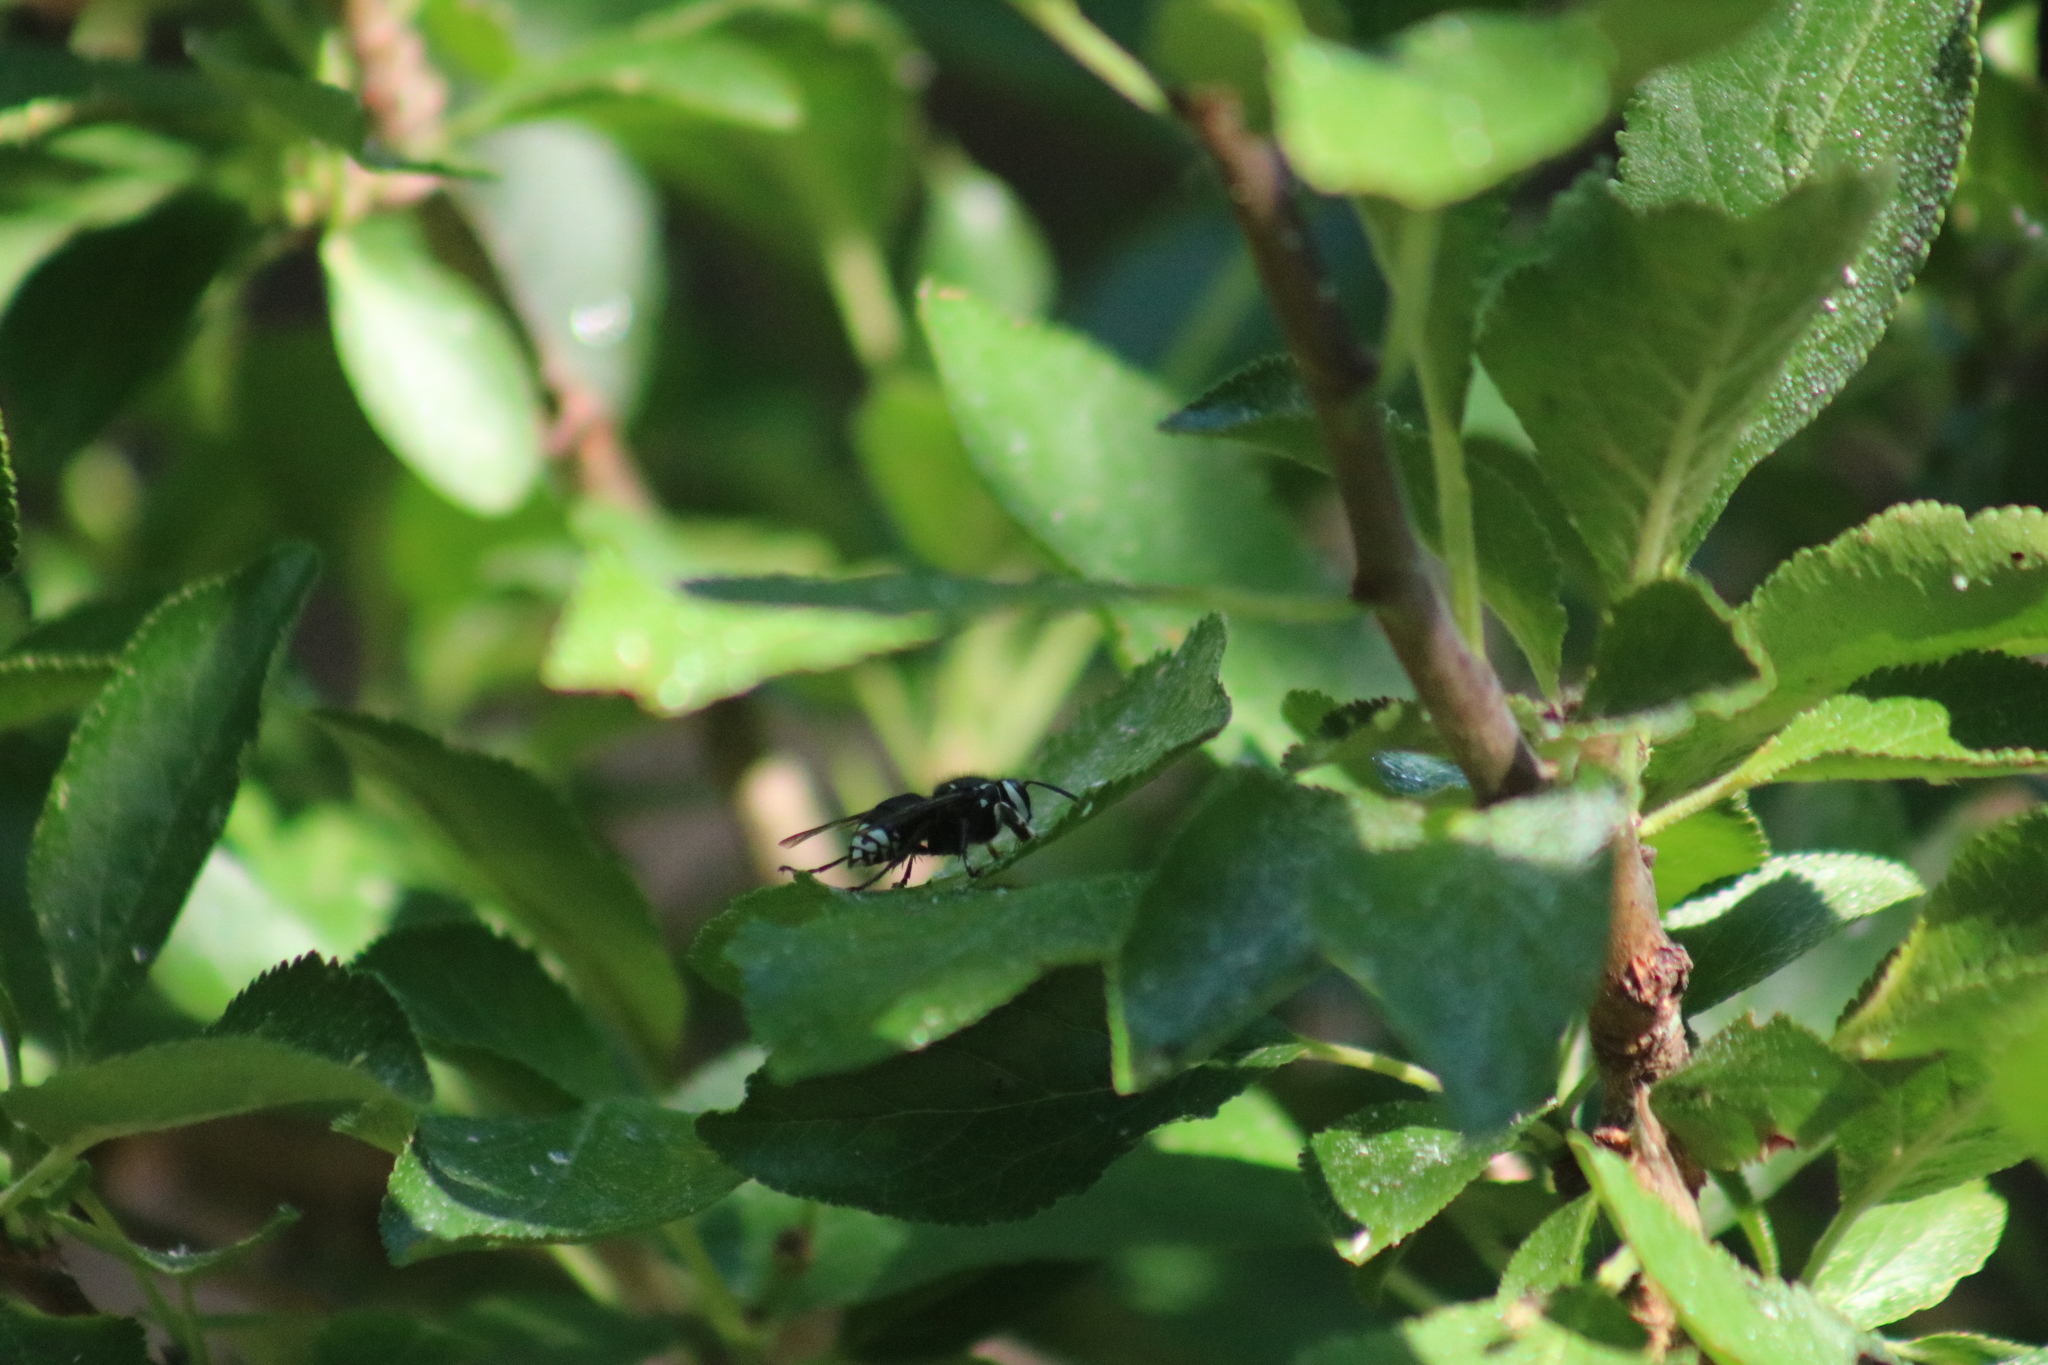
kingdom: Animalia
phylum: Arthropoda
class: Insecta
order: Hymenoptera
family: Vespidae
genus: Dolichovespula
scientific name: Dolichovespula maculata
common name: Bald-faced hornet
